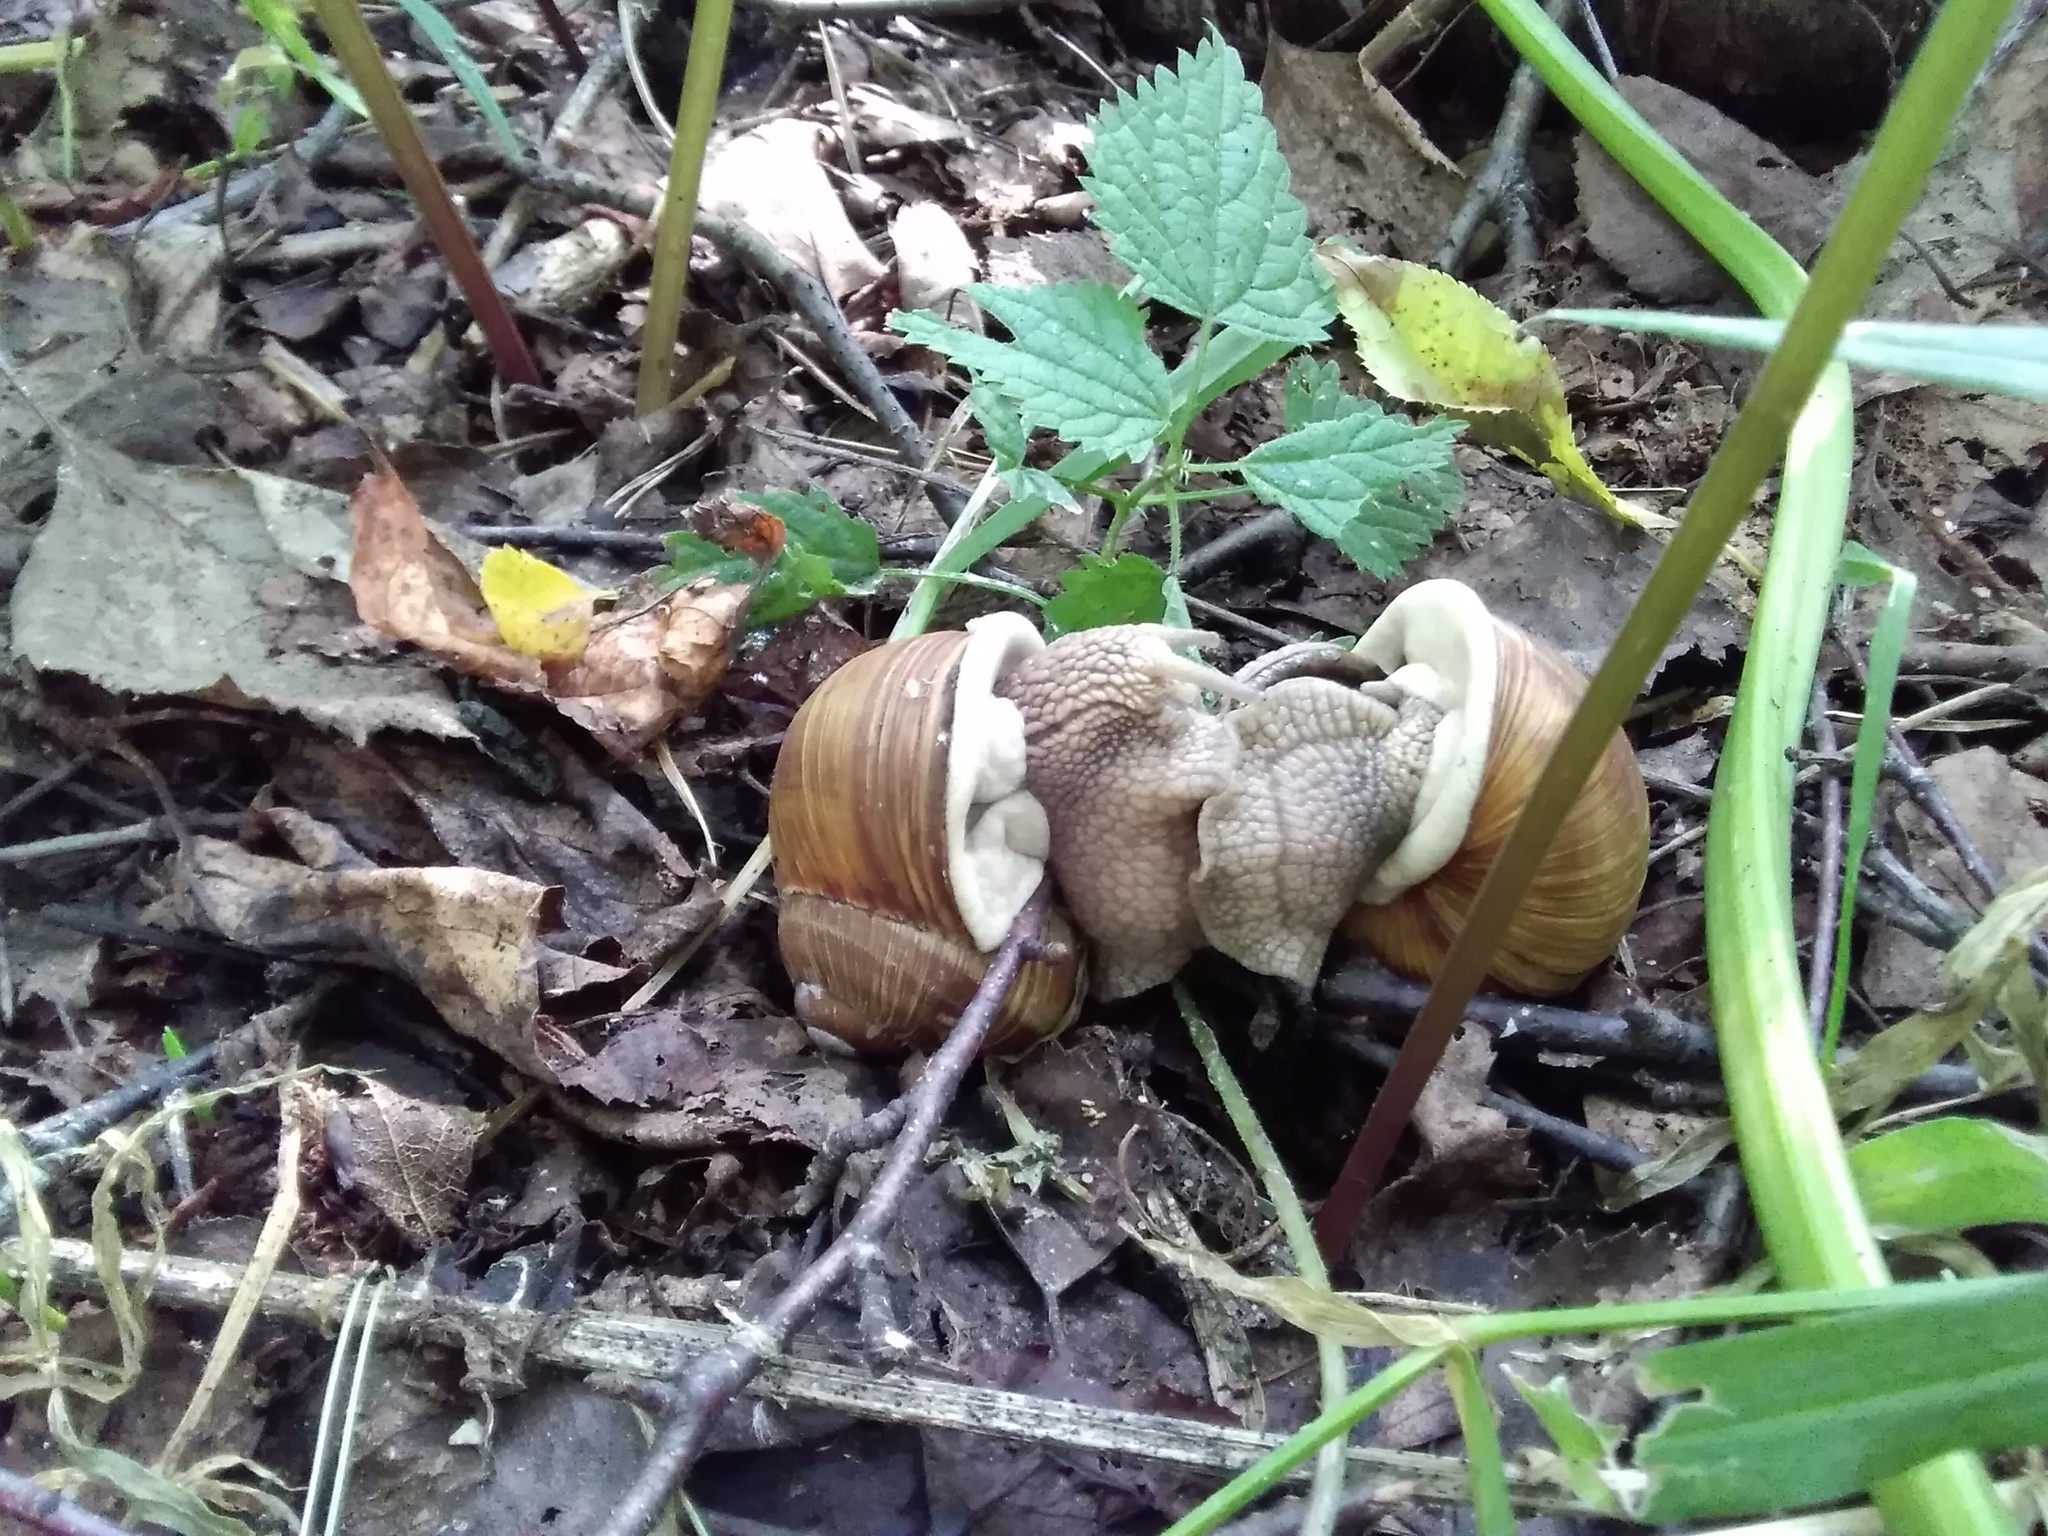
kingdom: Animalia
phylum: Mollusca
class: Gastropoda
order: Stylommatophora
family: Helicidae
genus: Helix
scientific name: Helix pomatia
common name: Roman snail
